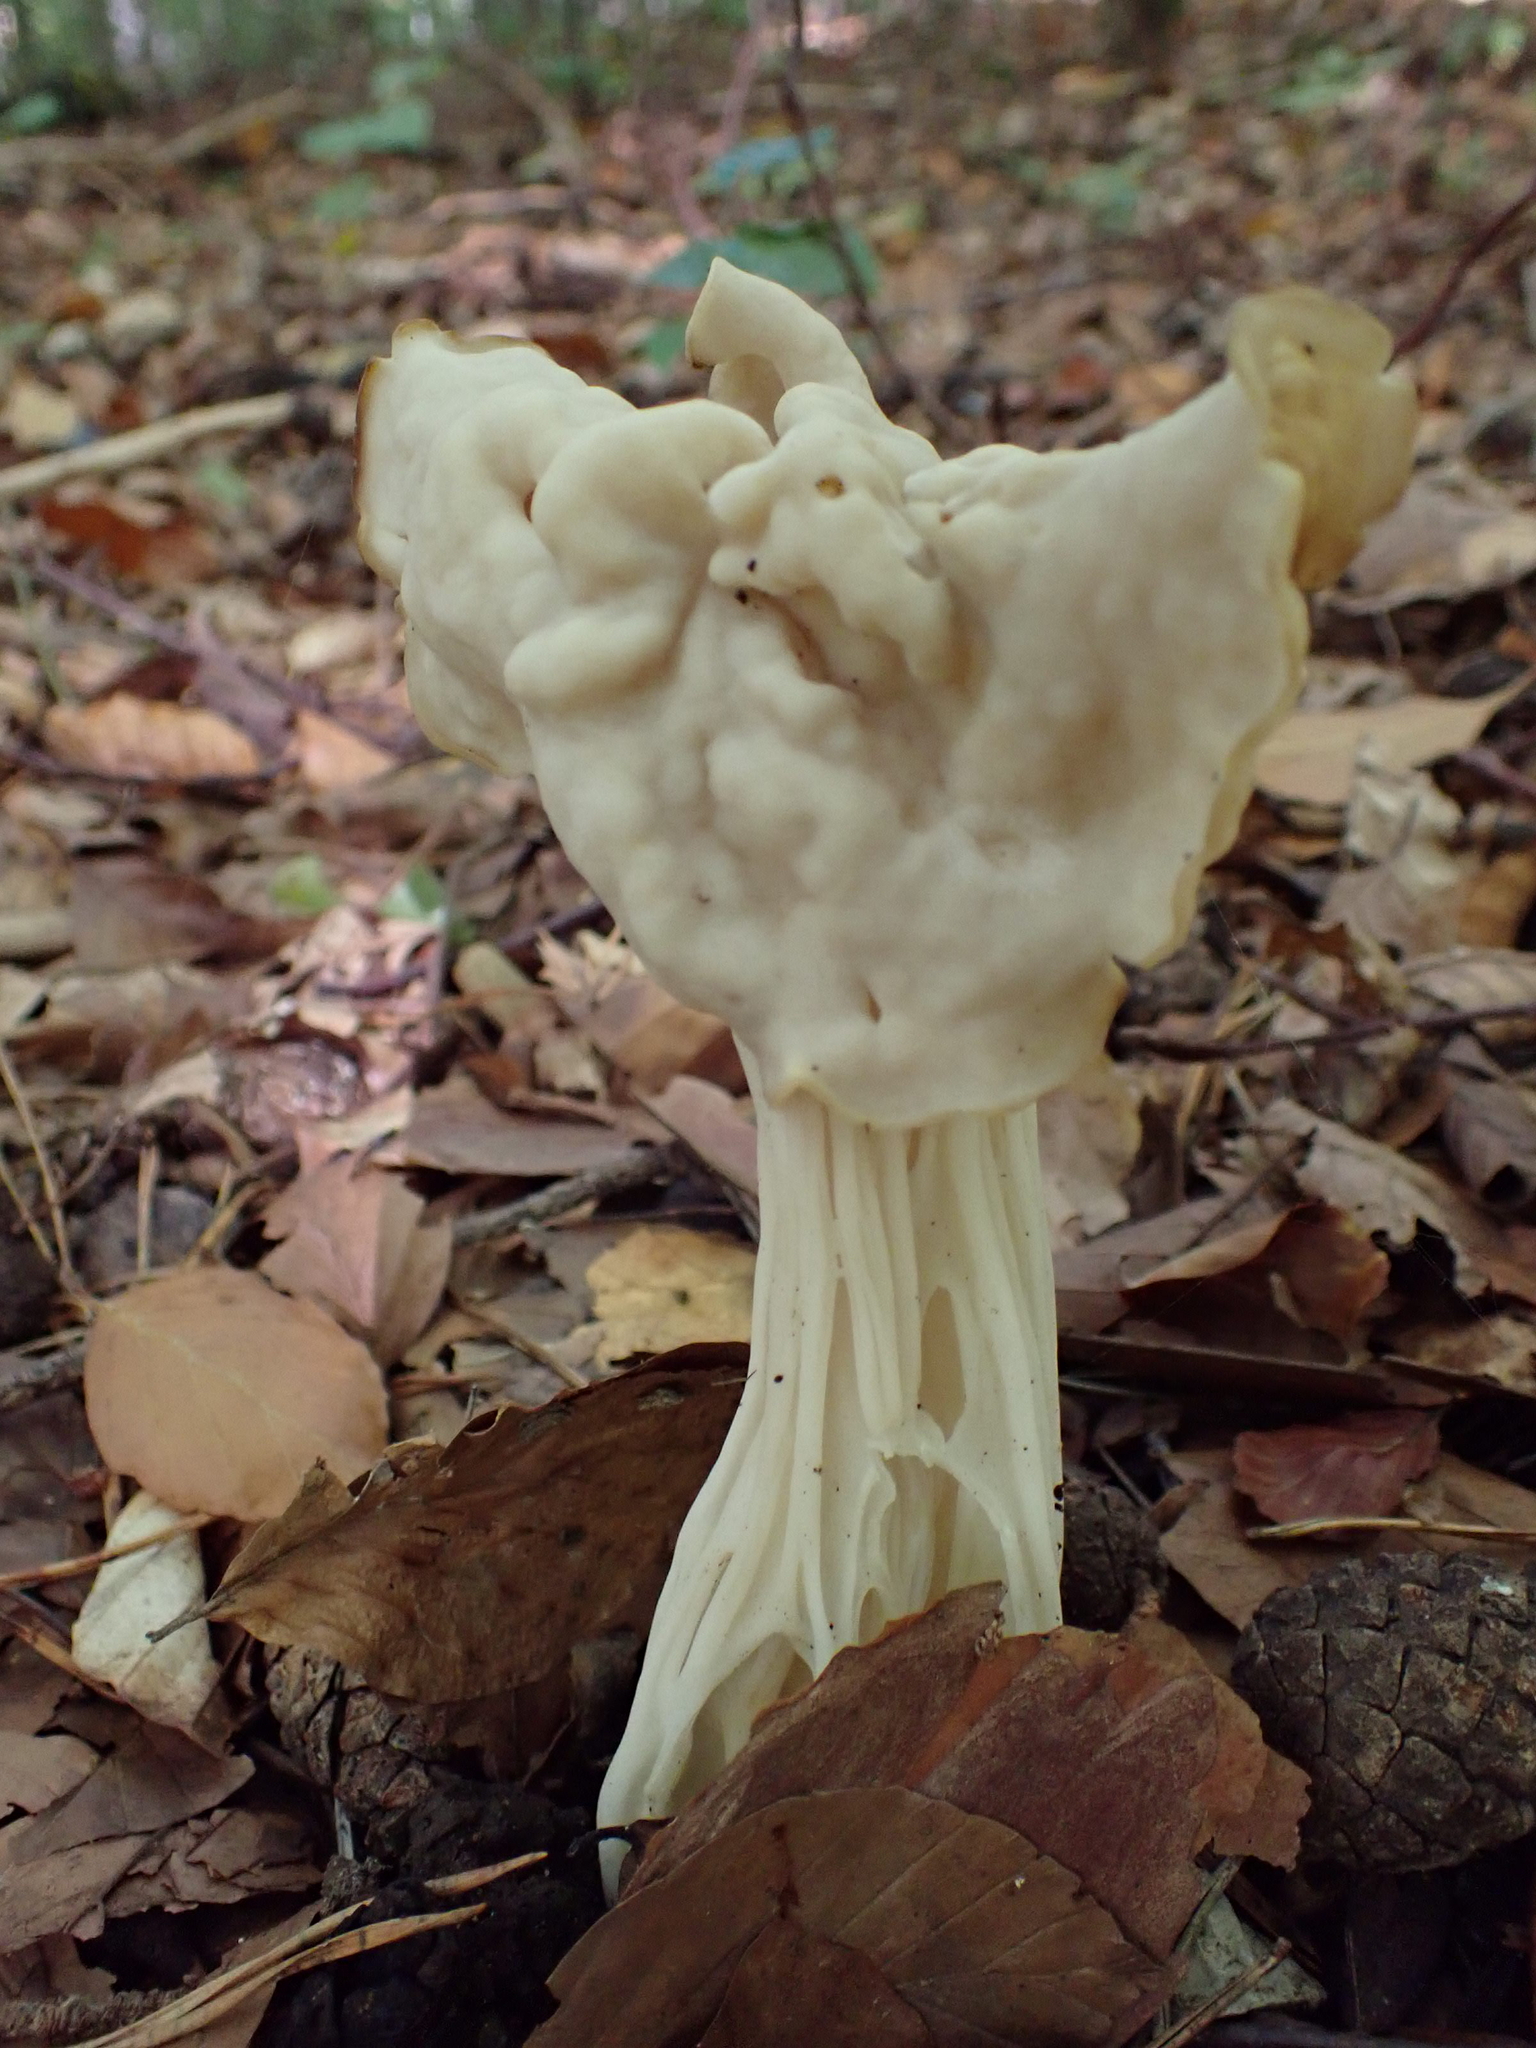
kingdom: Fungi
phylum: Ascomycota
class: Pezizomycetes
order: Pezizales
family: Helvellaceae
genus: Helvella
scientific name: Helvella crispa
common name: White saddle
